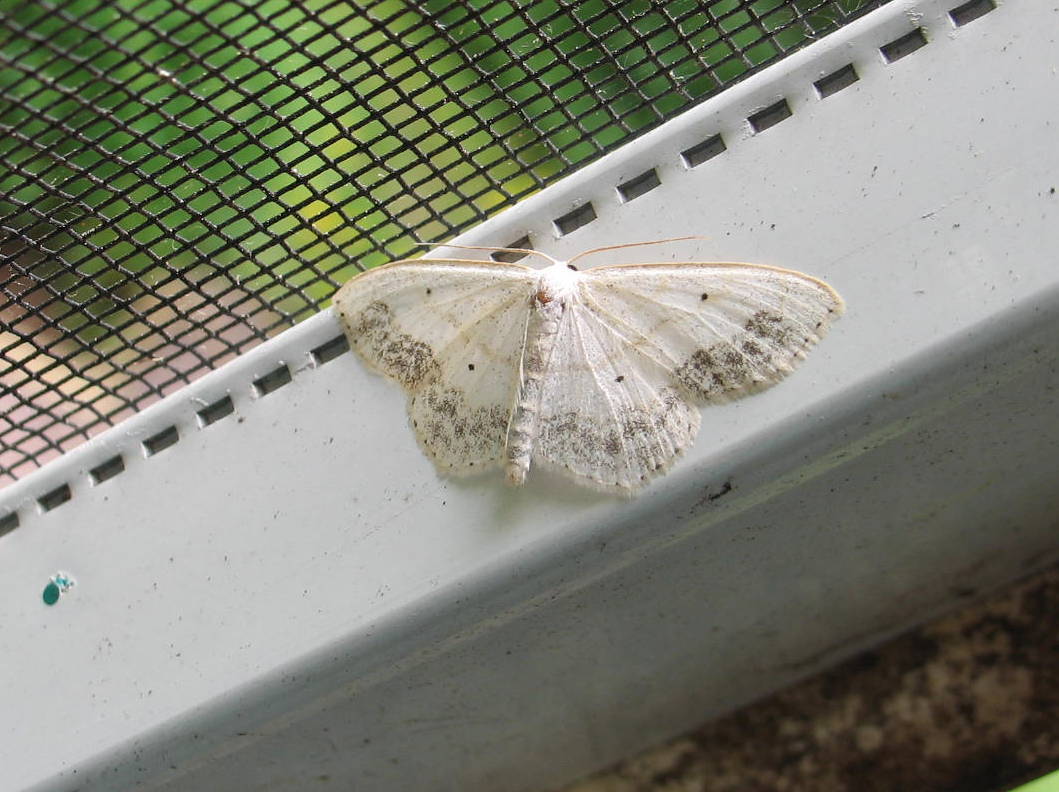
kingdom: Animalia
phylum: Arthropoda
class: Insecta
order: Lepidoptera
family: Geometridae
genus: Scopula
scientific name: Scopula limboundata
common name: Large lace border
